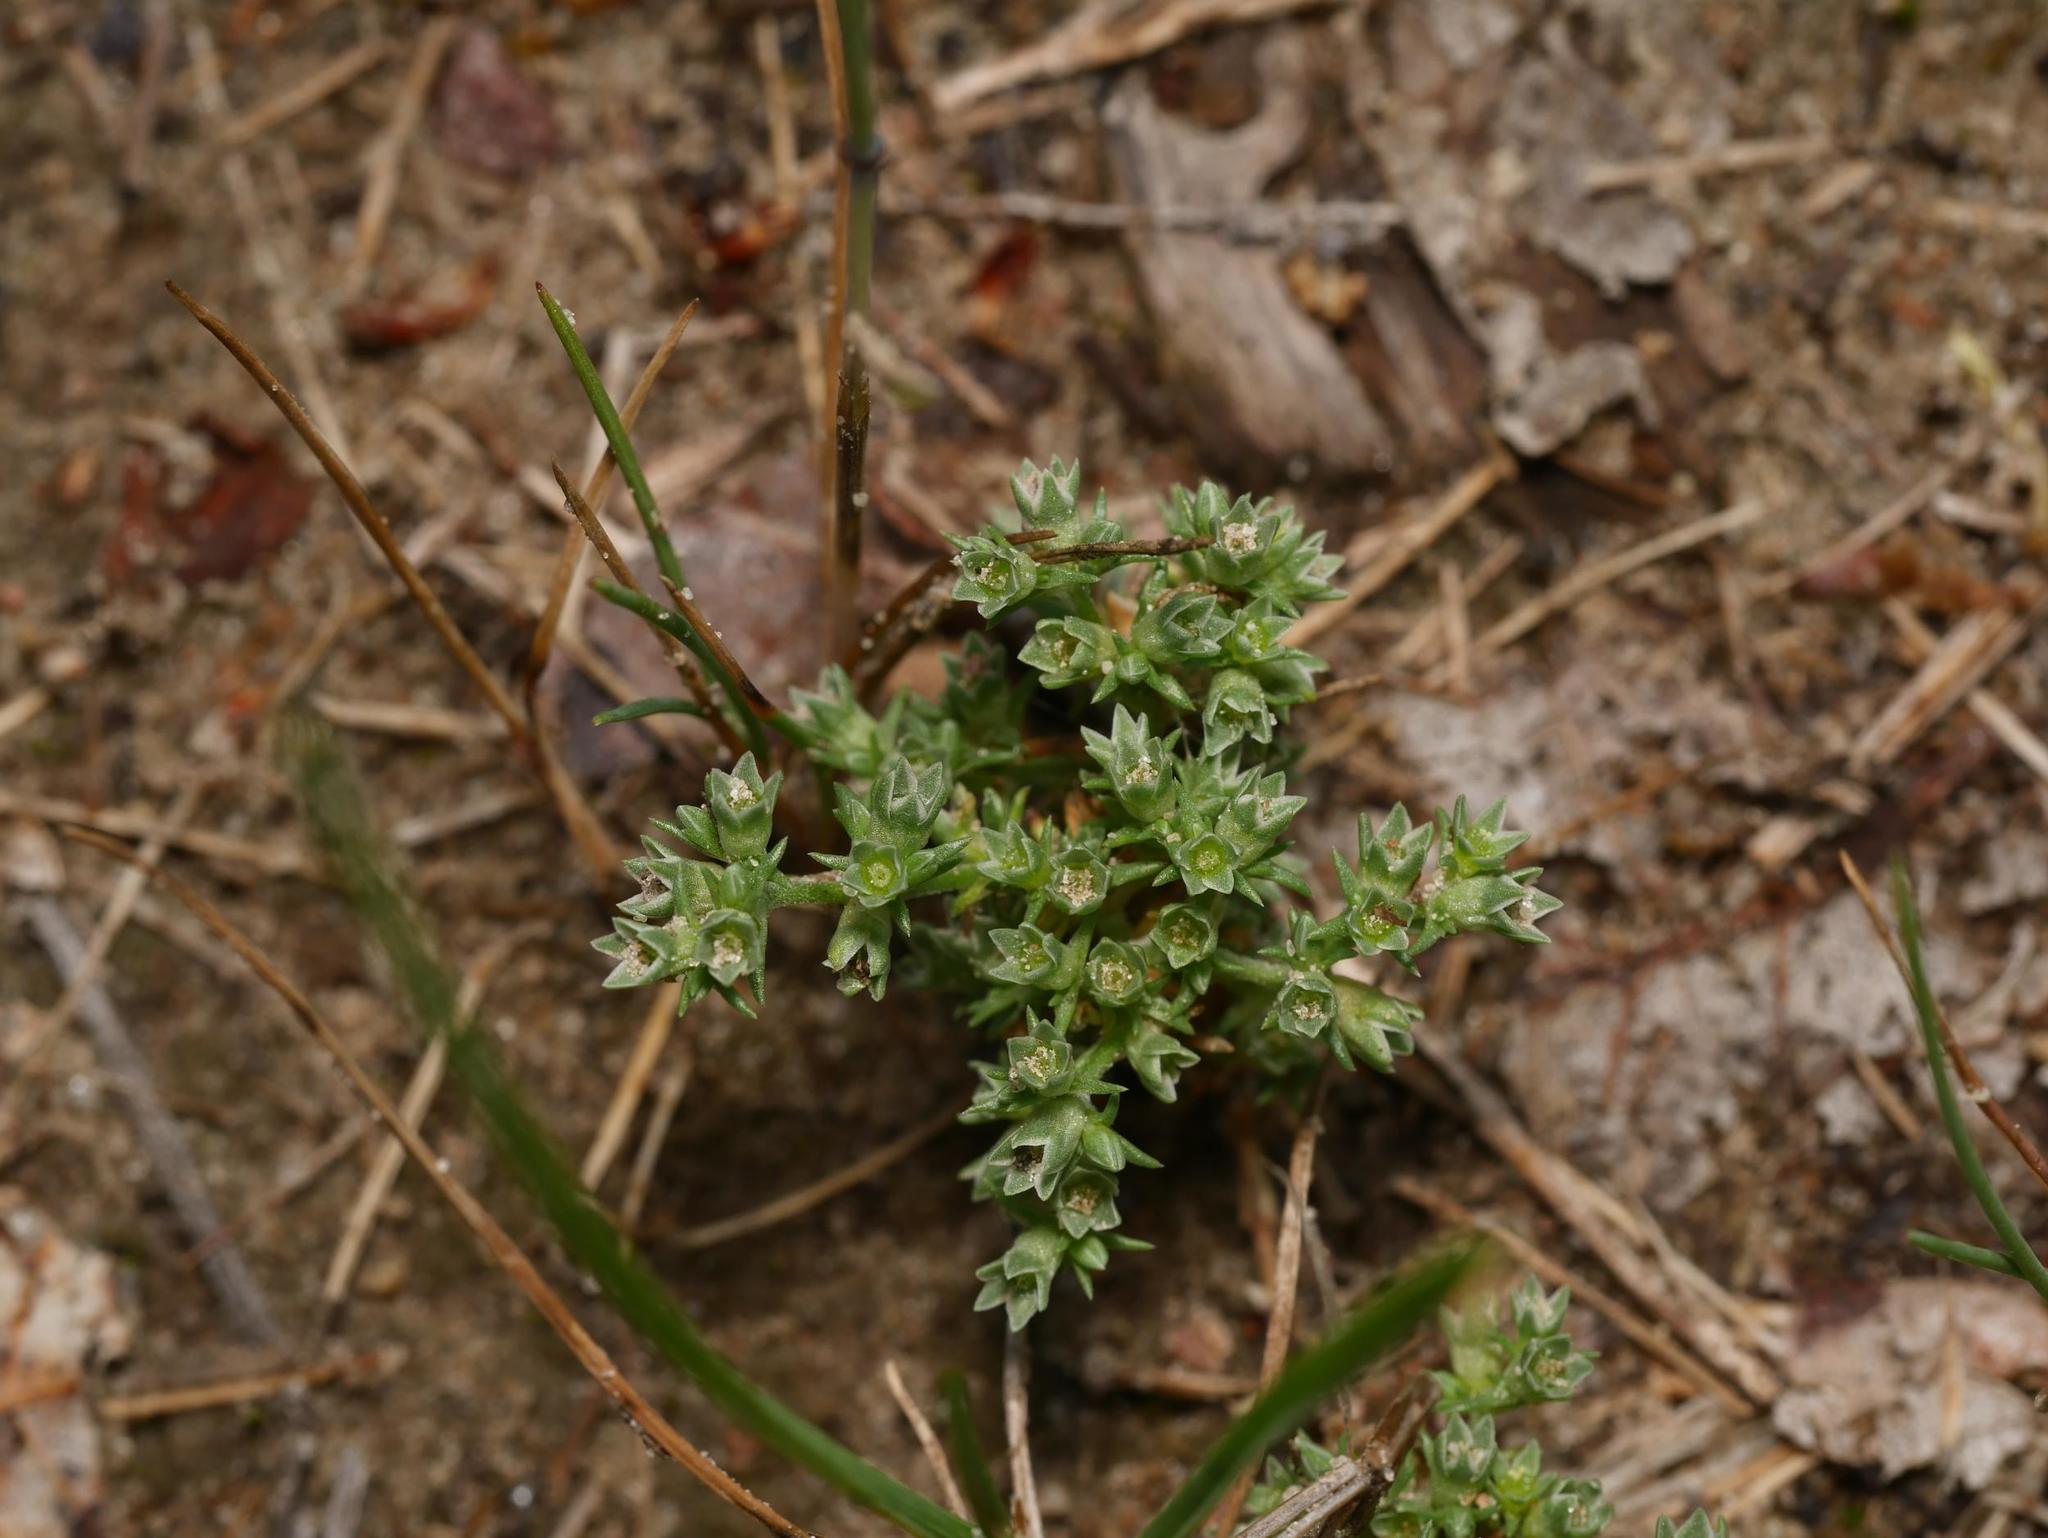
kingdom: Plantae
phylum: Tracheophyta
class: Magnoliopsida
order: Caryophyllales
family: Caryophyllaceae
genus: Scleranthus
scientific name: Scleranthus annuus
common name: Annual knawel
